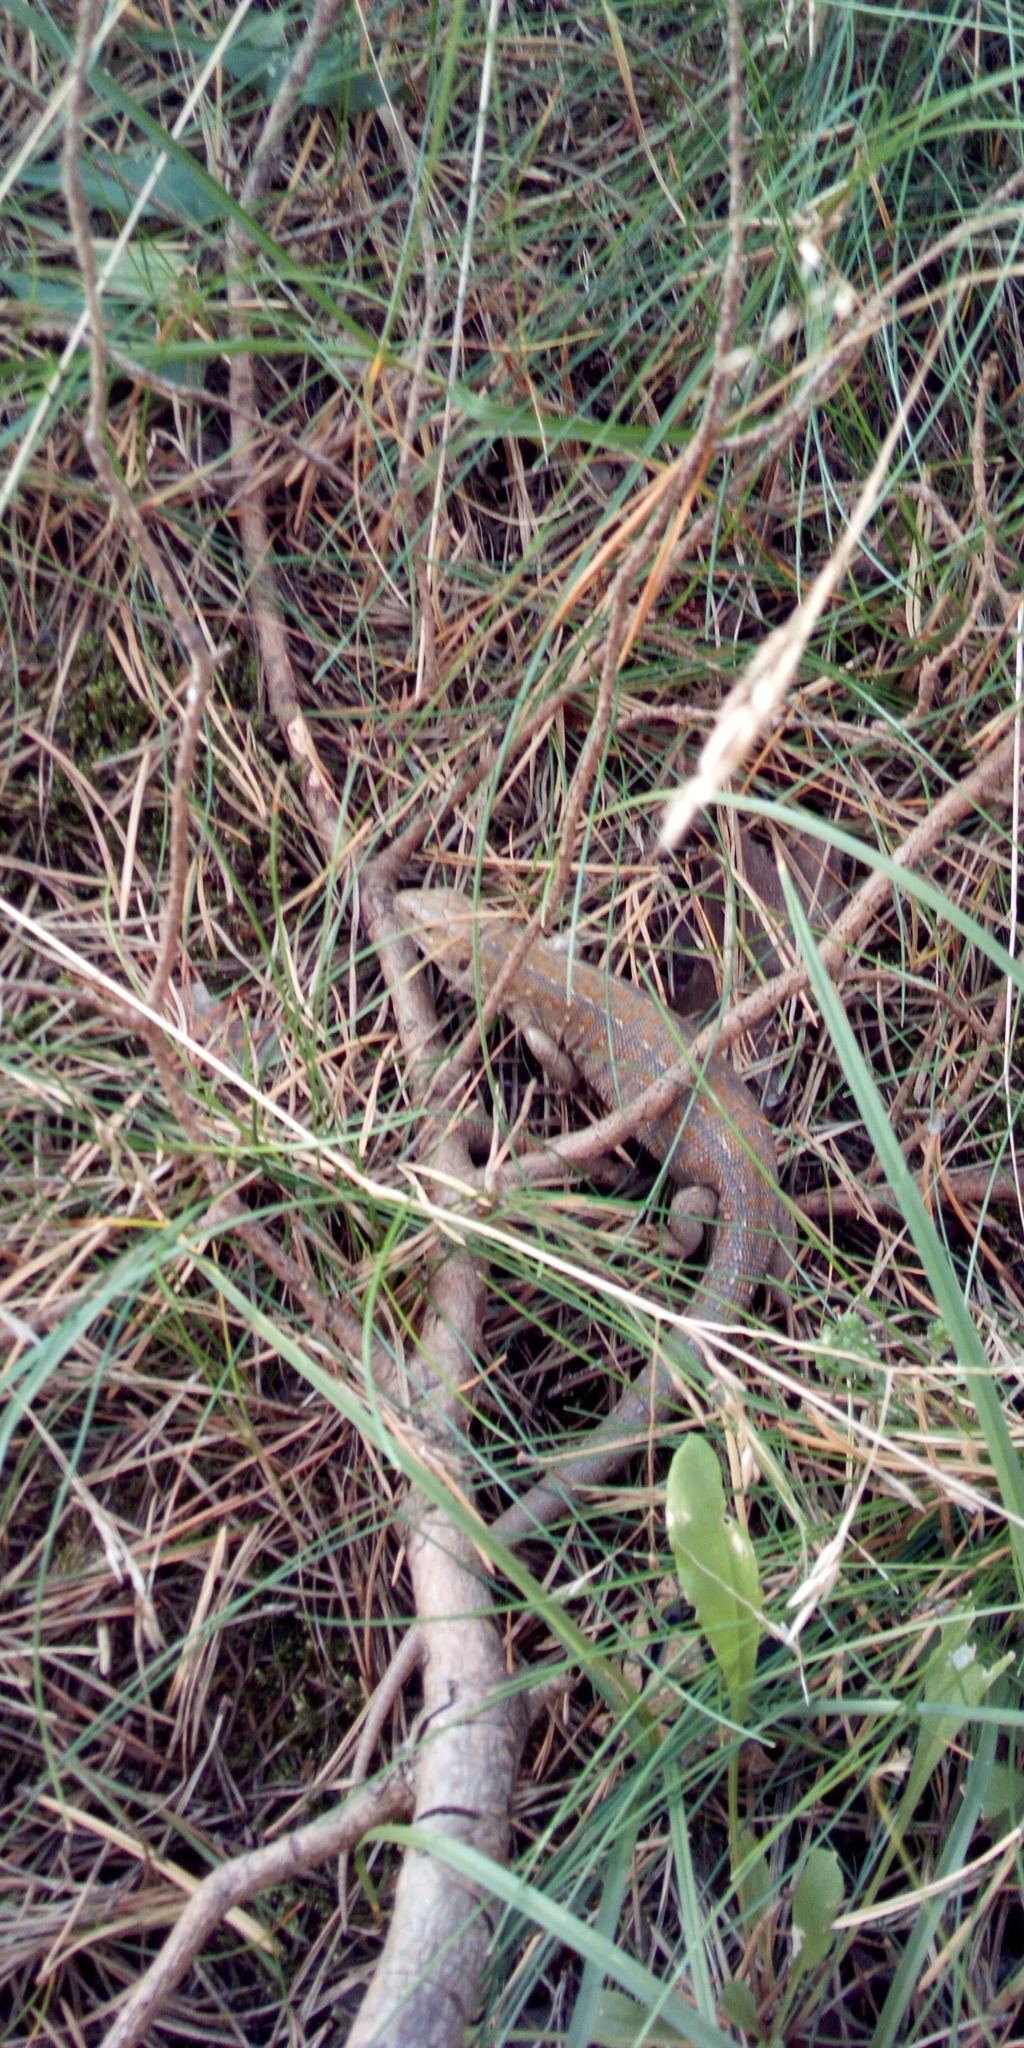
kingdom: Animalia
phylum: Chordata
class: Squamata
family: Lacertidae
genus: Lacerta
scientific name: Lacerta agilis
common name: Sand lizard
